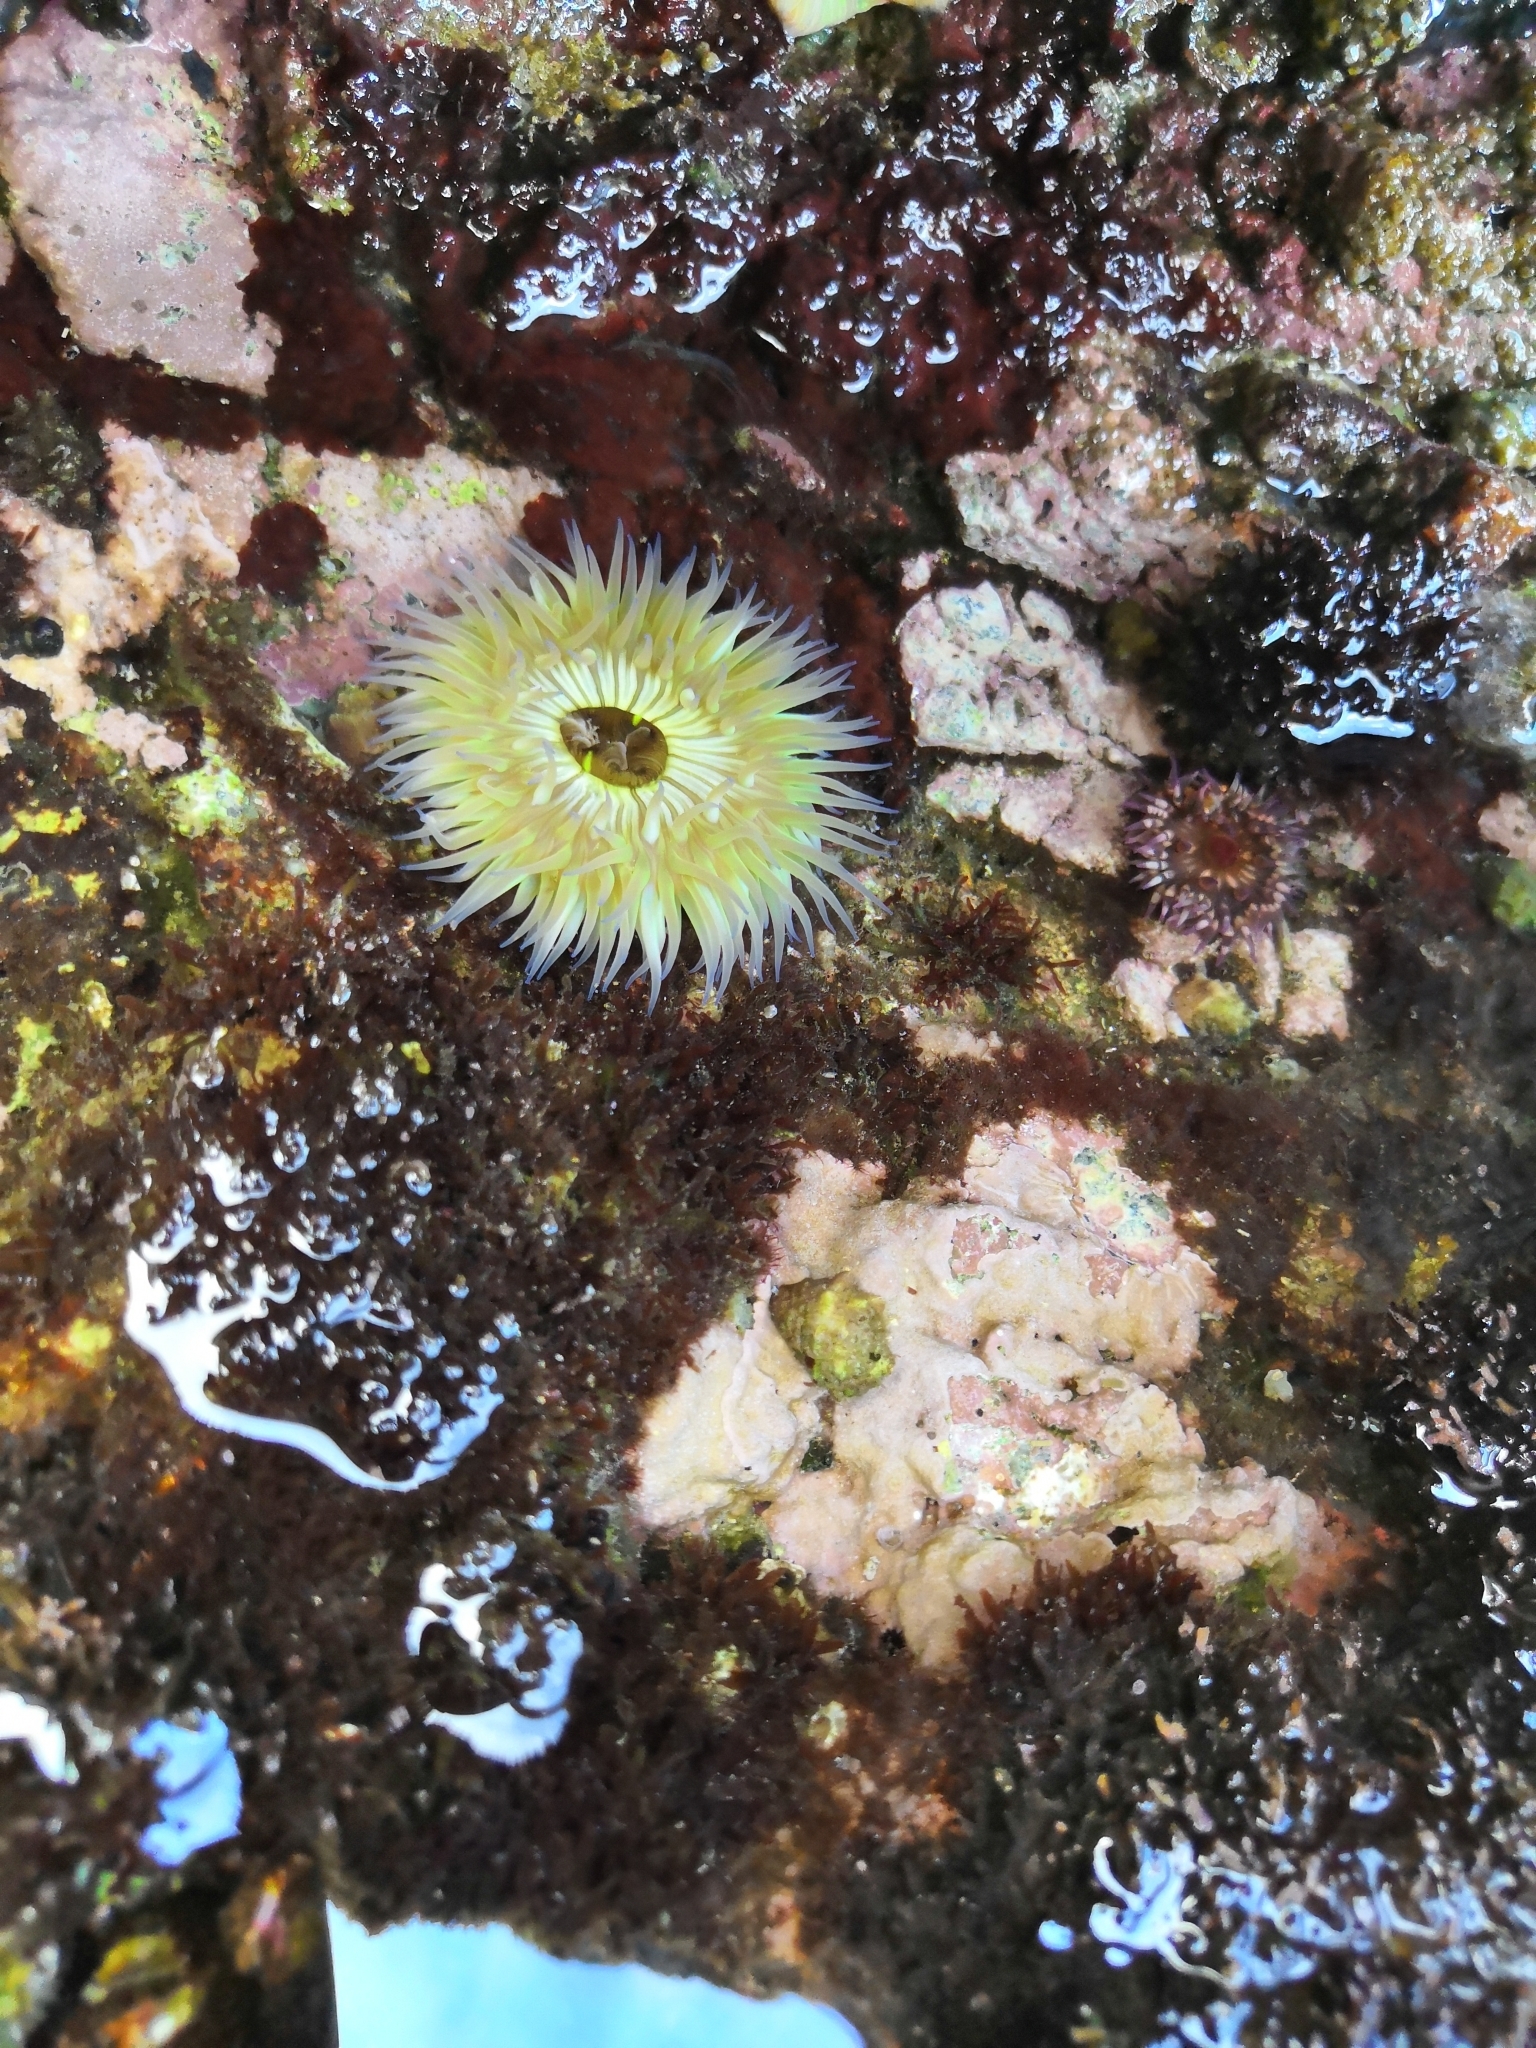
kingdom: Animalia
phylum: Cnidaria
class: Anthozoa
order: Actiniaria
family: Actiniidae
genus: Anthopleura
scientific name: Anthopleura sola
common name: Sun anemone
